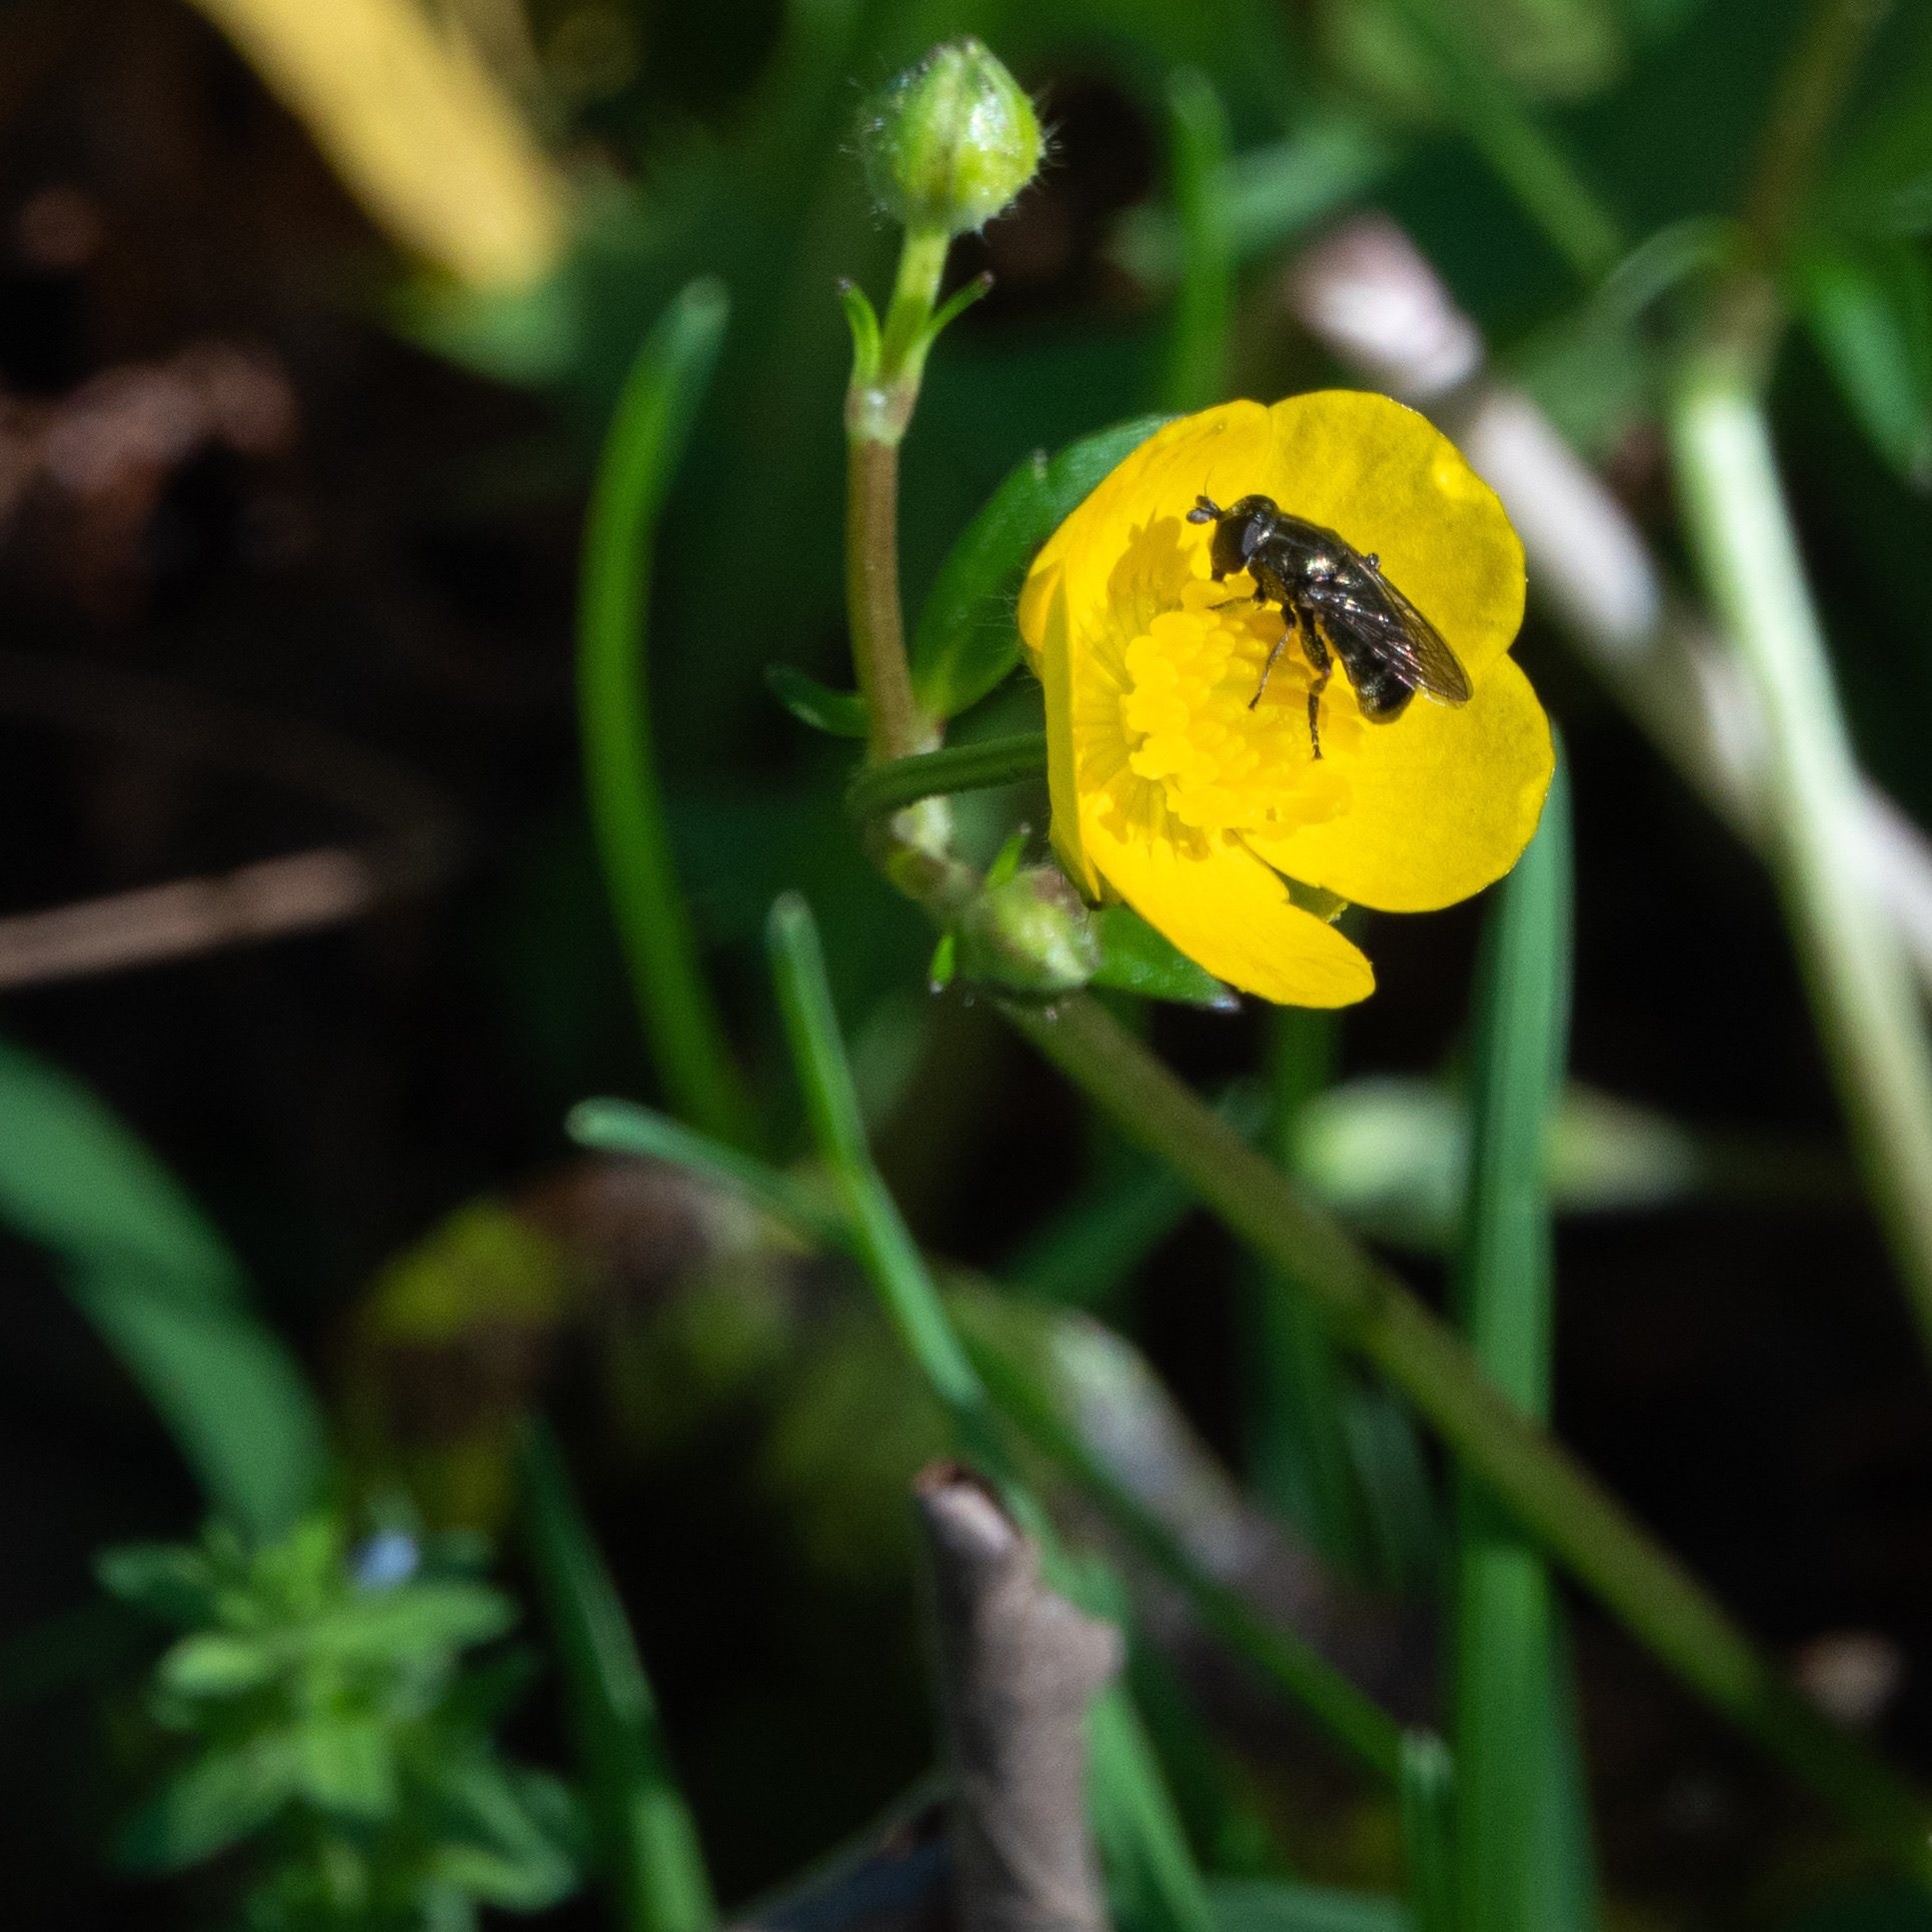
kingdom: Animalia
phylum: Arthropoda
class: Insecta
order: Diptera
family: Syrphidae
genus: Eumerus
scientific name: Eumerus
